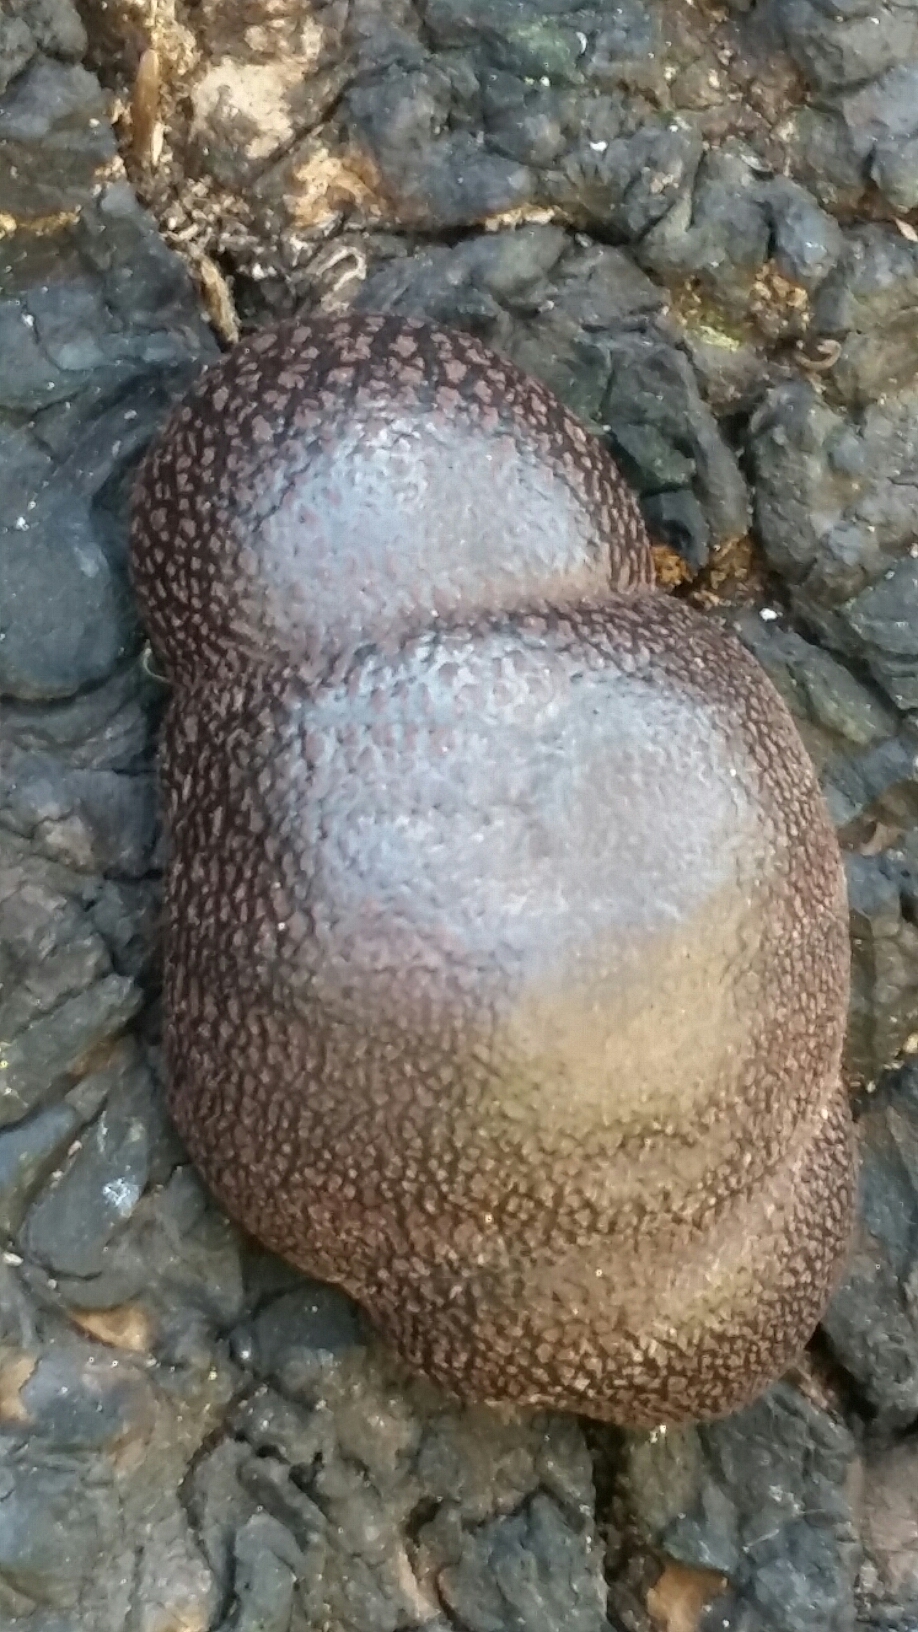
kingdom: Fungi
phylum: Ascomycota
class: Sordariomycetes
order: Xylariales
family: Hypoxylaceae
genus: Annulohypoxylon
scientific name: Annulohypoxylon thouarsianum
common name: Cramp balls
